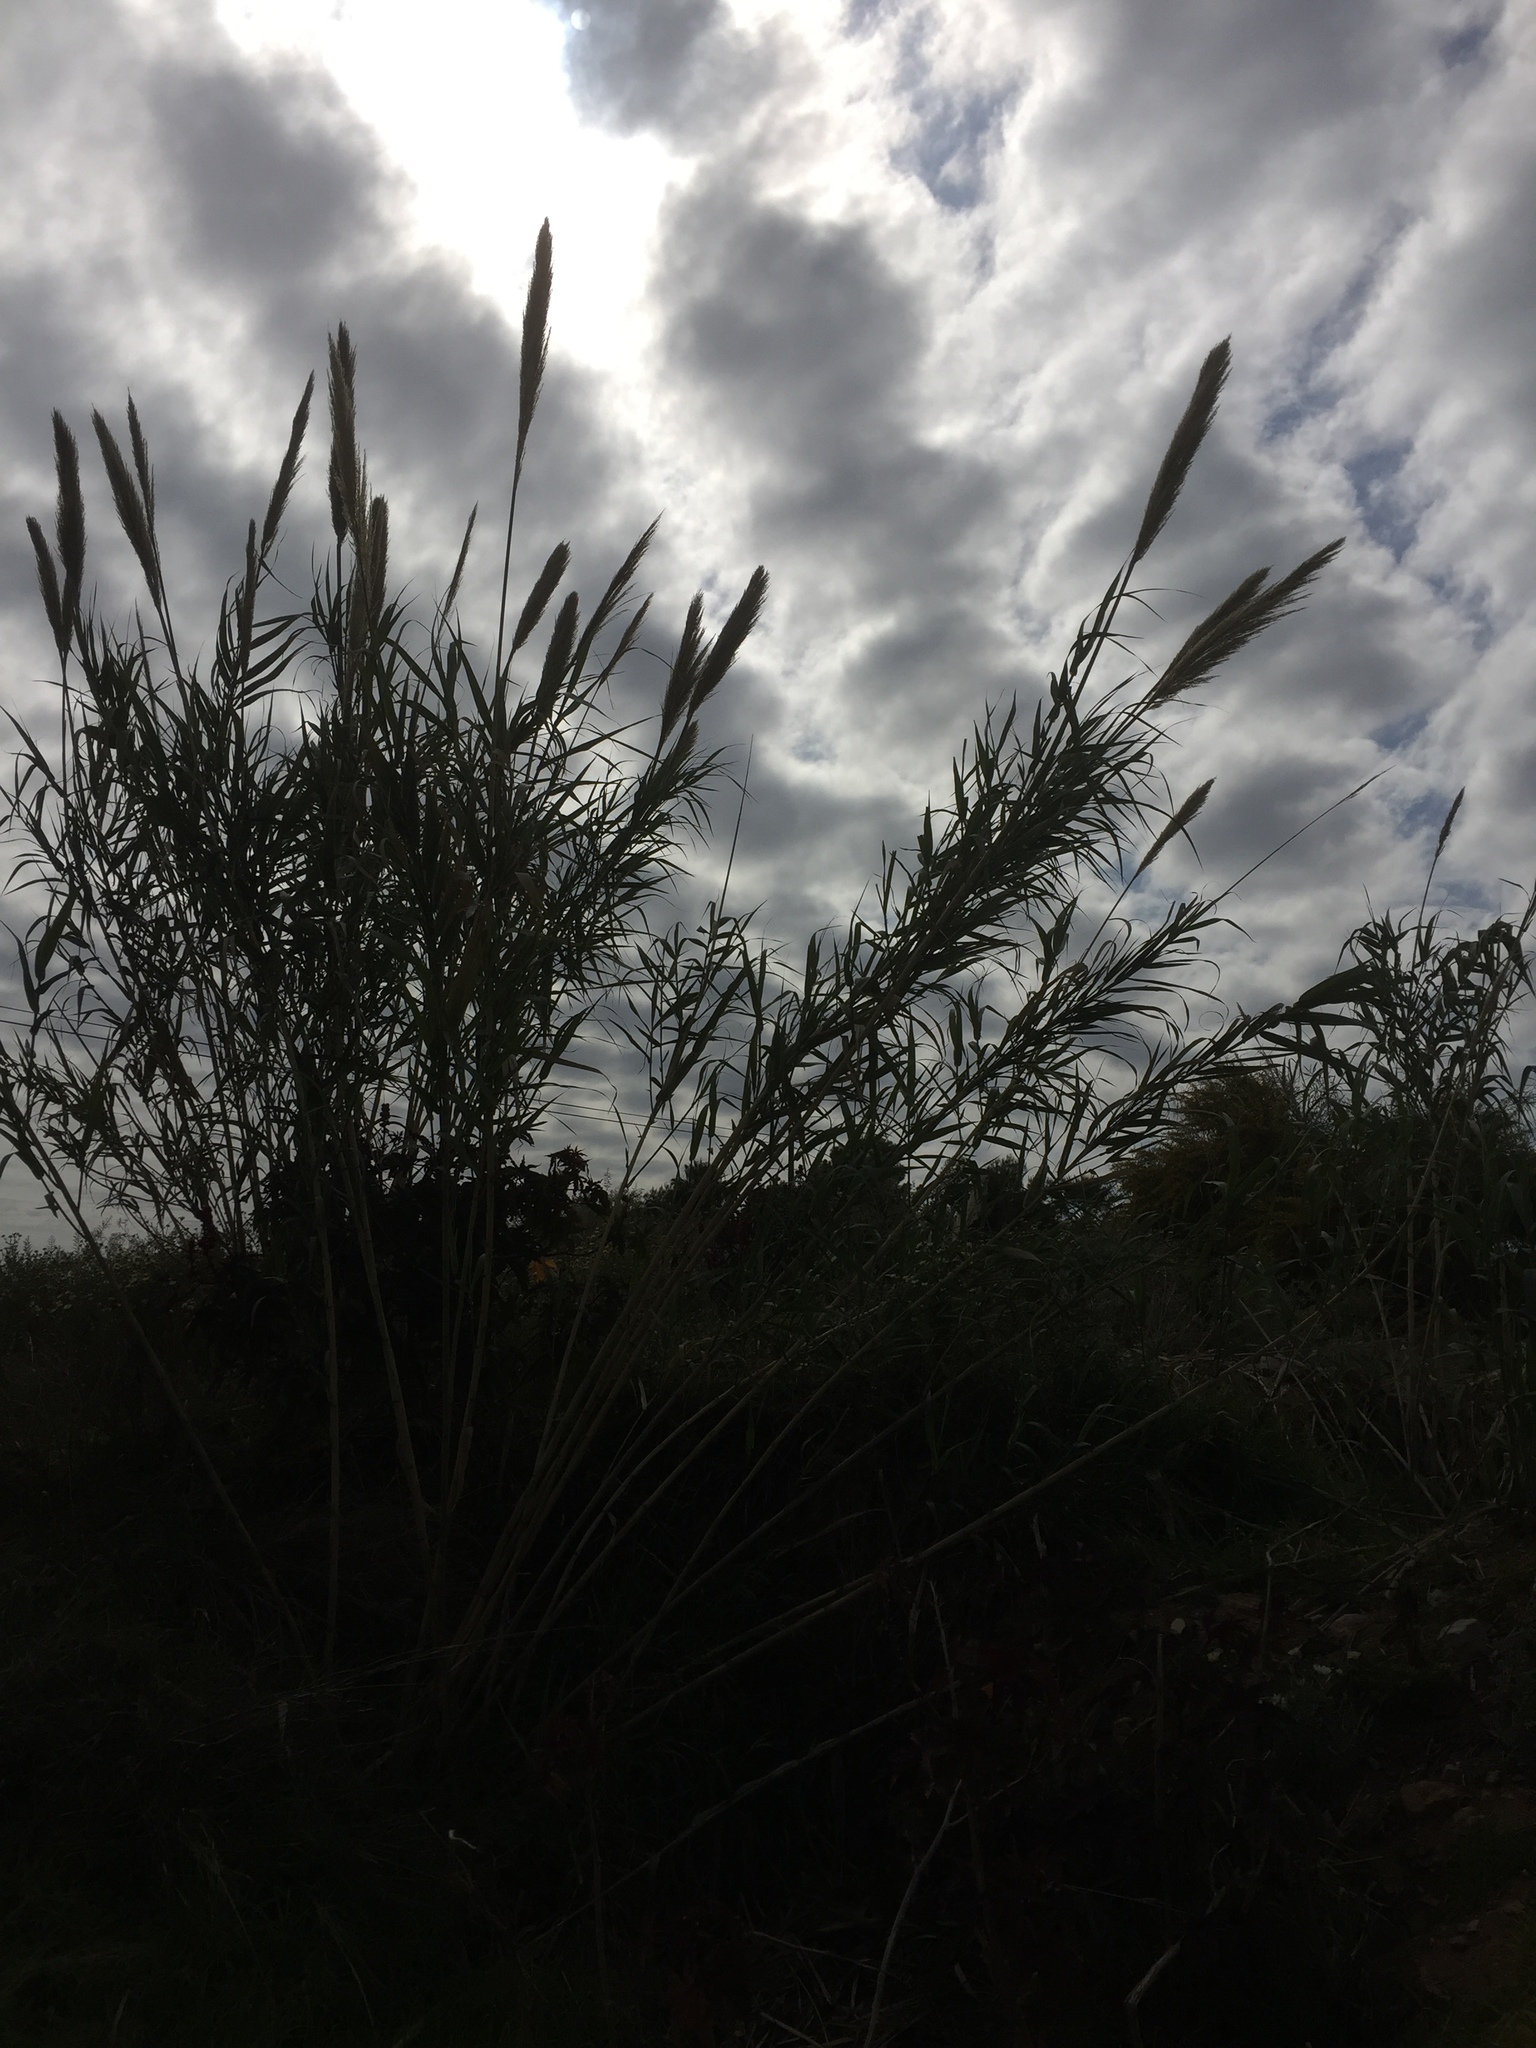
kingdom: Plantae
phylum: Tracheophyta
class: Liliopsida
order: Poales
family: Poaceae
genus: Arundo
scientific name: Arundo donax
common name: Giant reed
